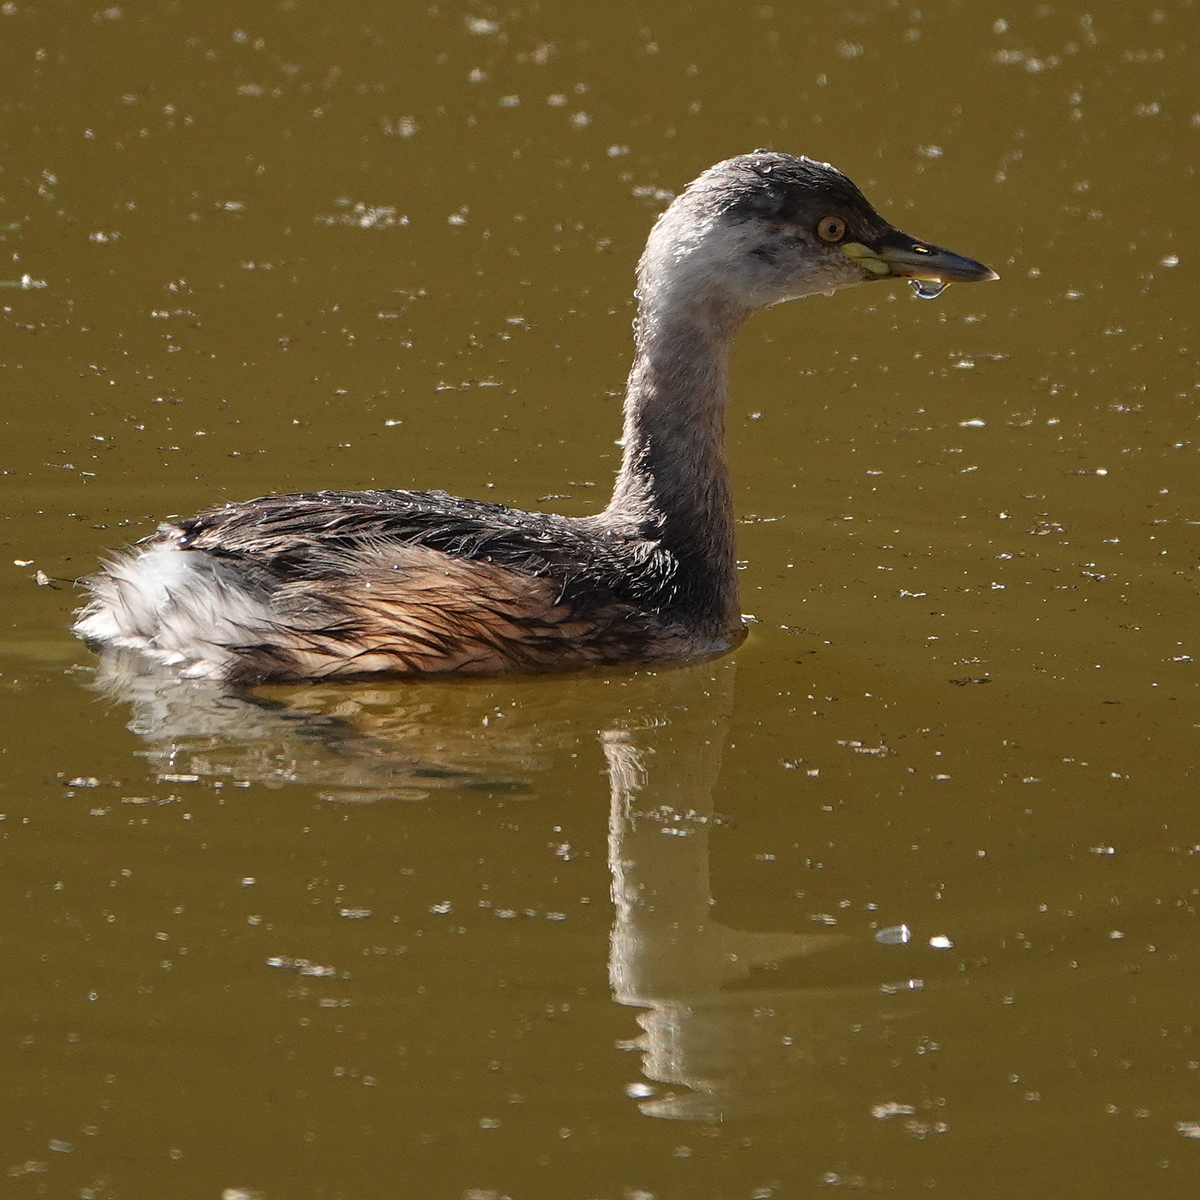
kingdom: Animalia
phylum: Chordata
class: Aves
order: Podicipediformes
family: Podicipedidae
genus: Tachybaptus
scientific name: Tachybaptus novaehollandiae
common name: Australasian grebe
